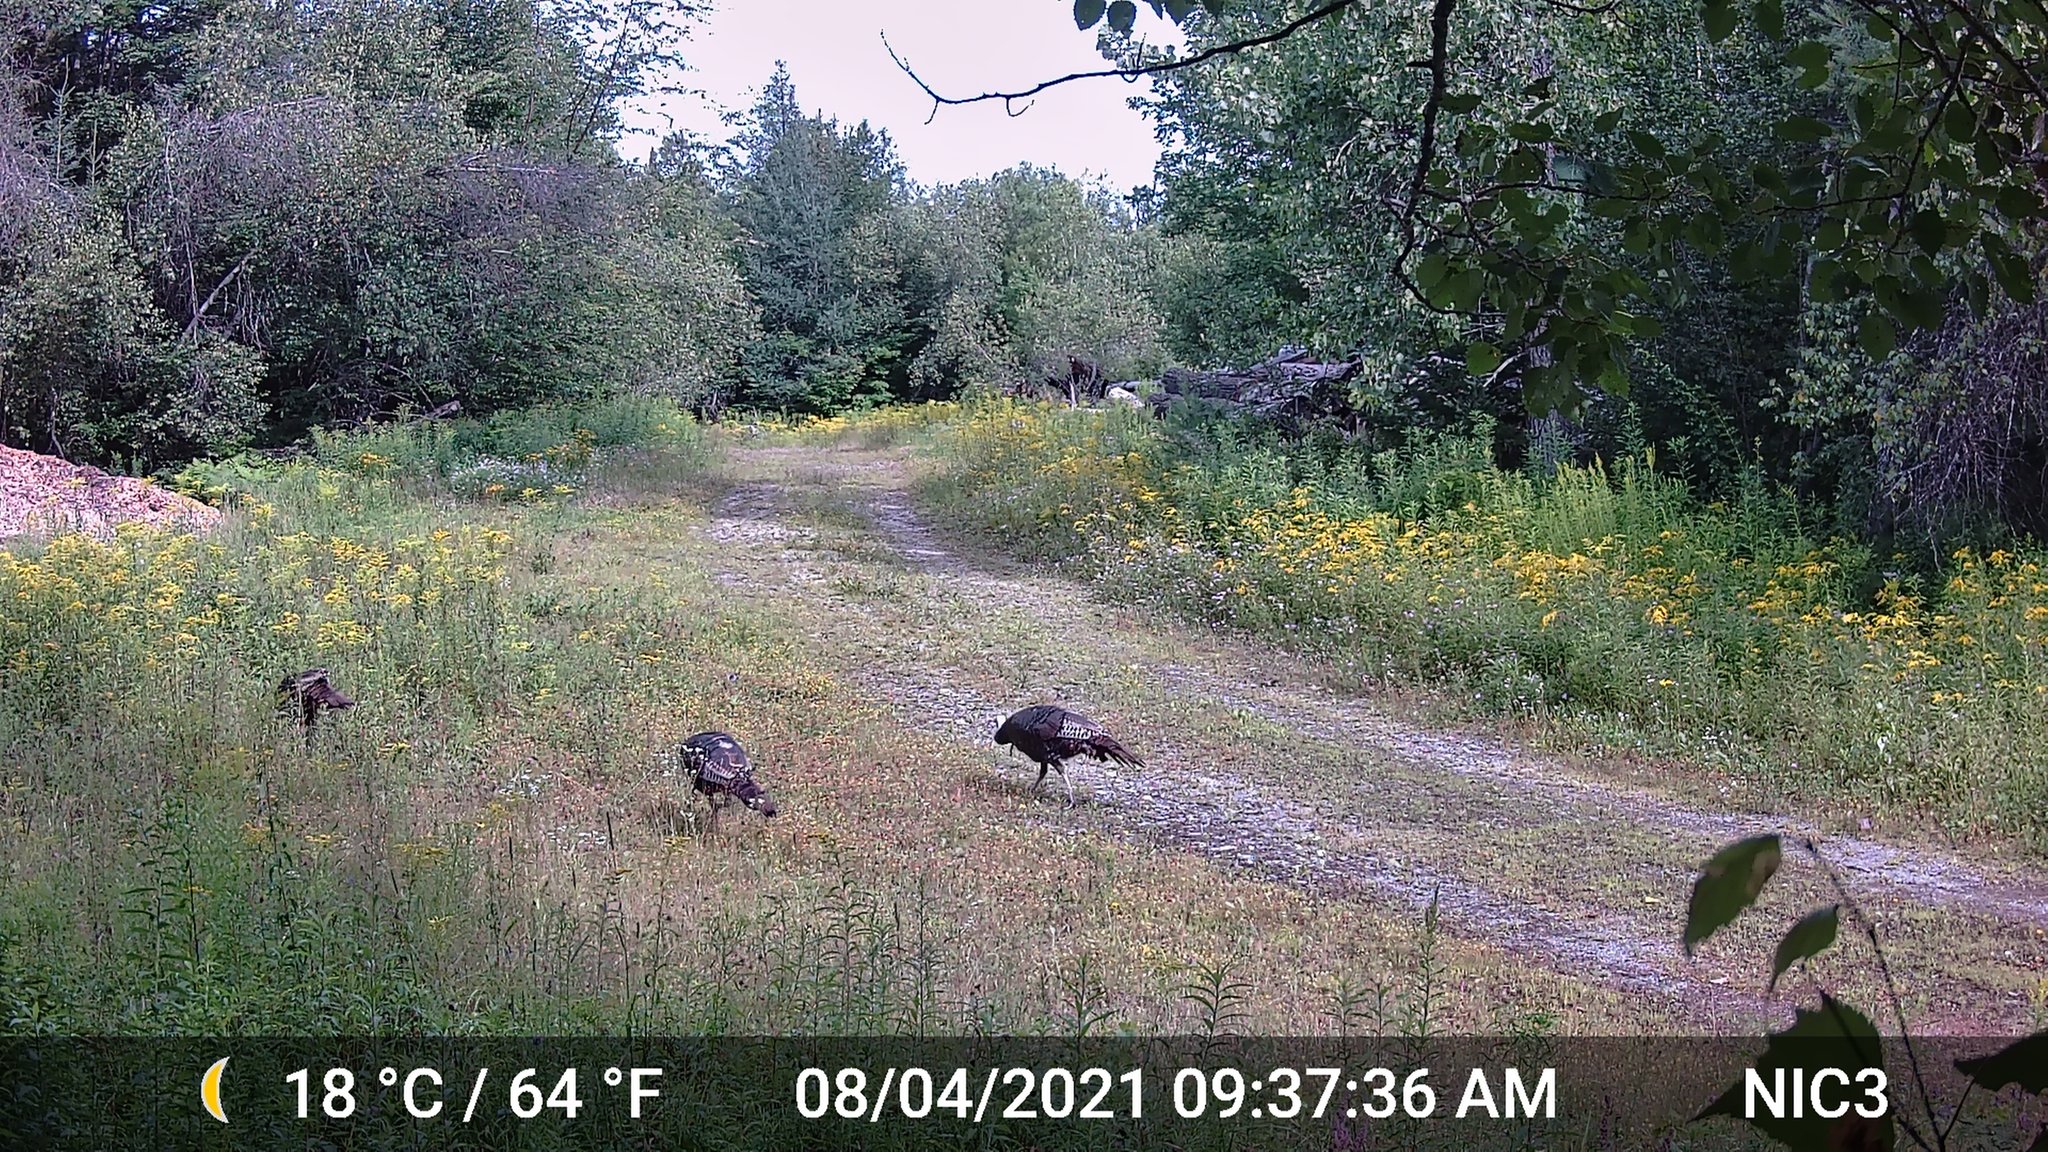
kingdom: Animalia
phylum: Chordata
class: Aves
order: Galliformes
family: Phasianidae
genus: Meleagris
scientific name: Meleagris gallopavo
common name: Wild turkey
